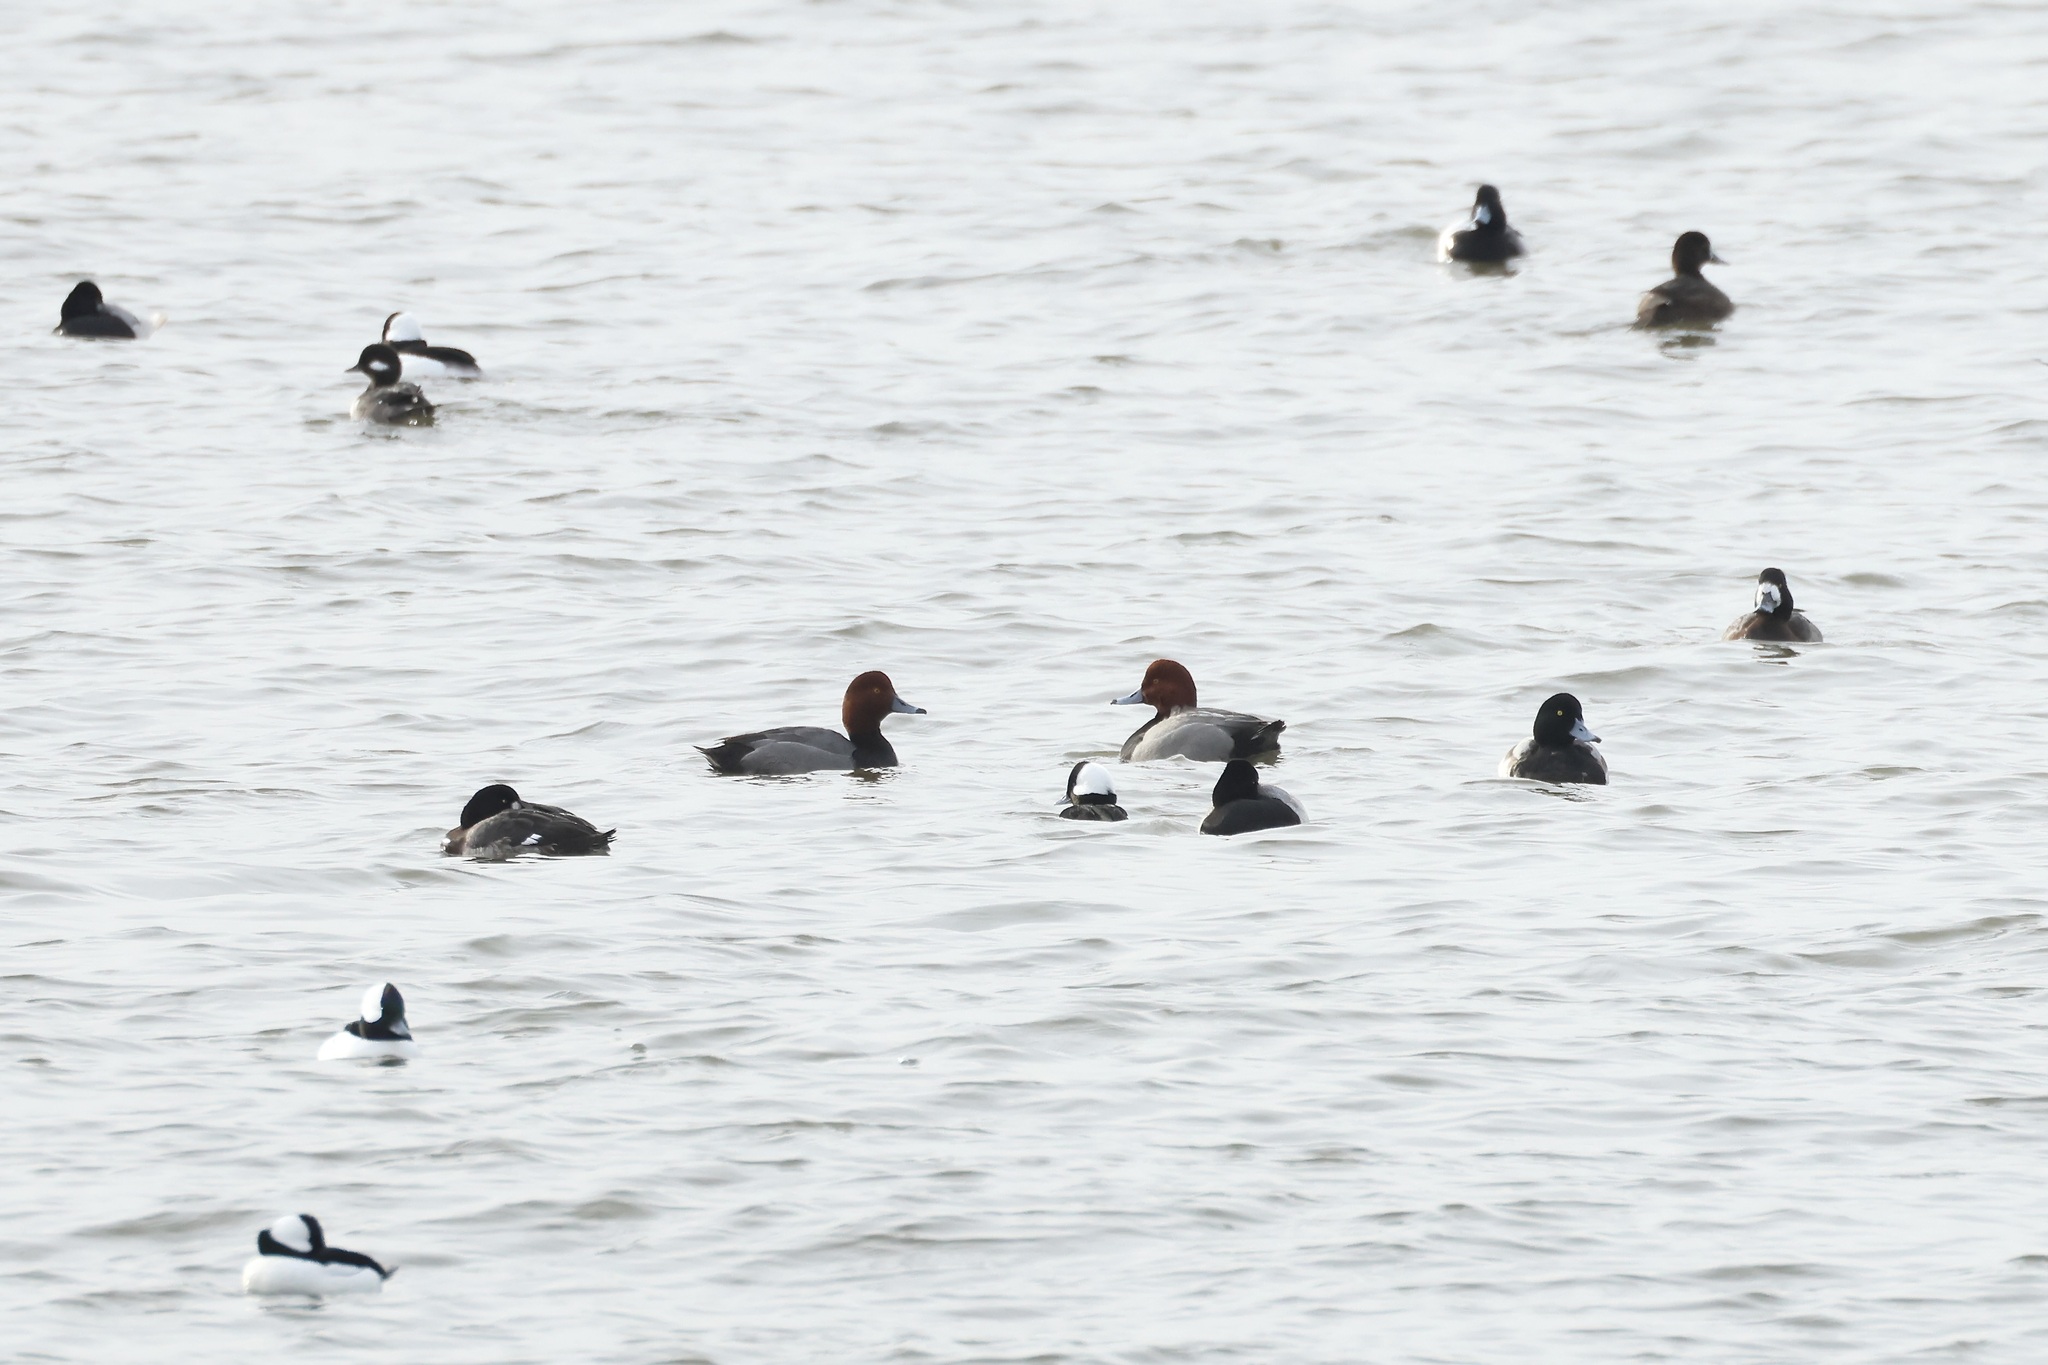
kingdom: Animalia
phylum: Chordata
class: Aves
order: Anseriformes
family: Anatidae
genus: Aythya
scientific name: Aythya americana
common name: Redhead
